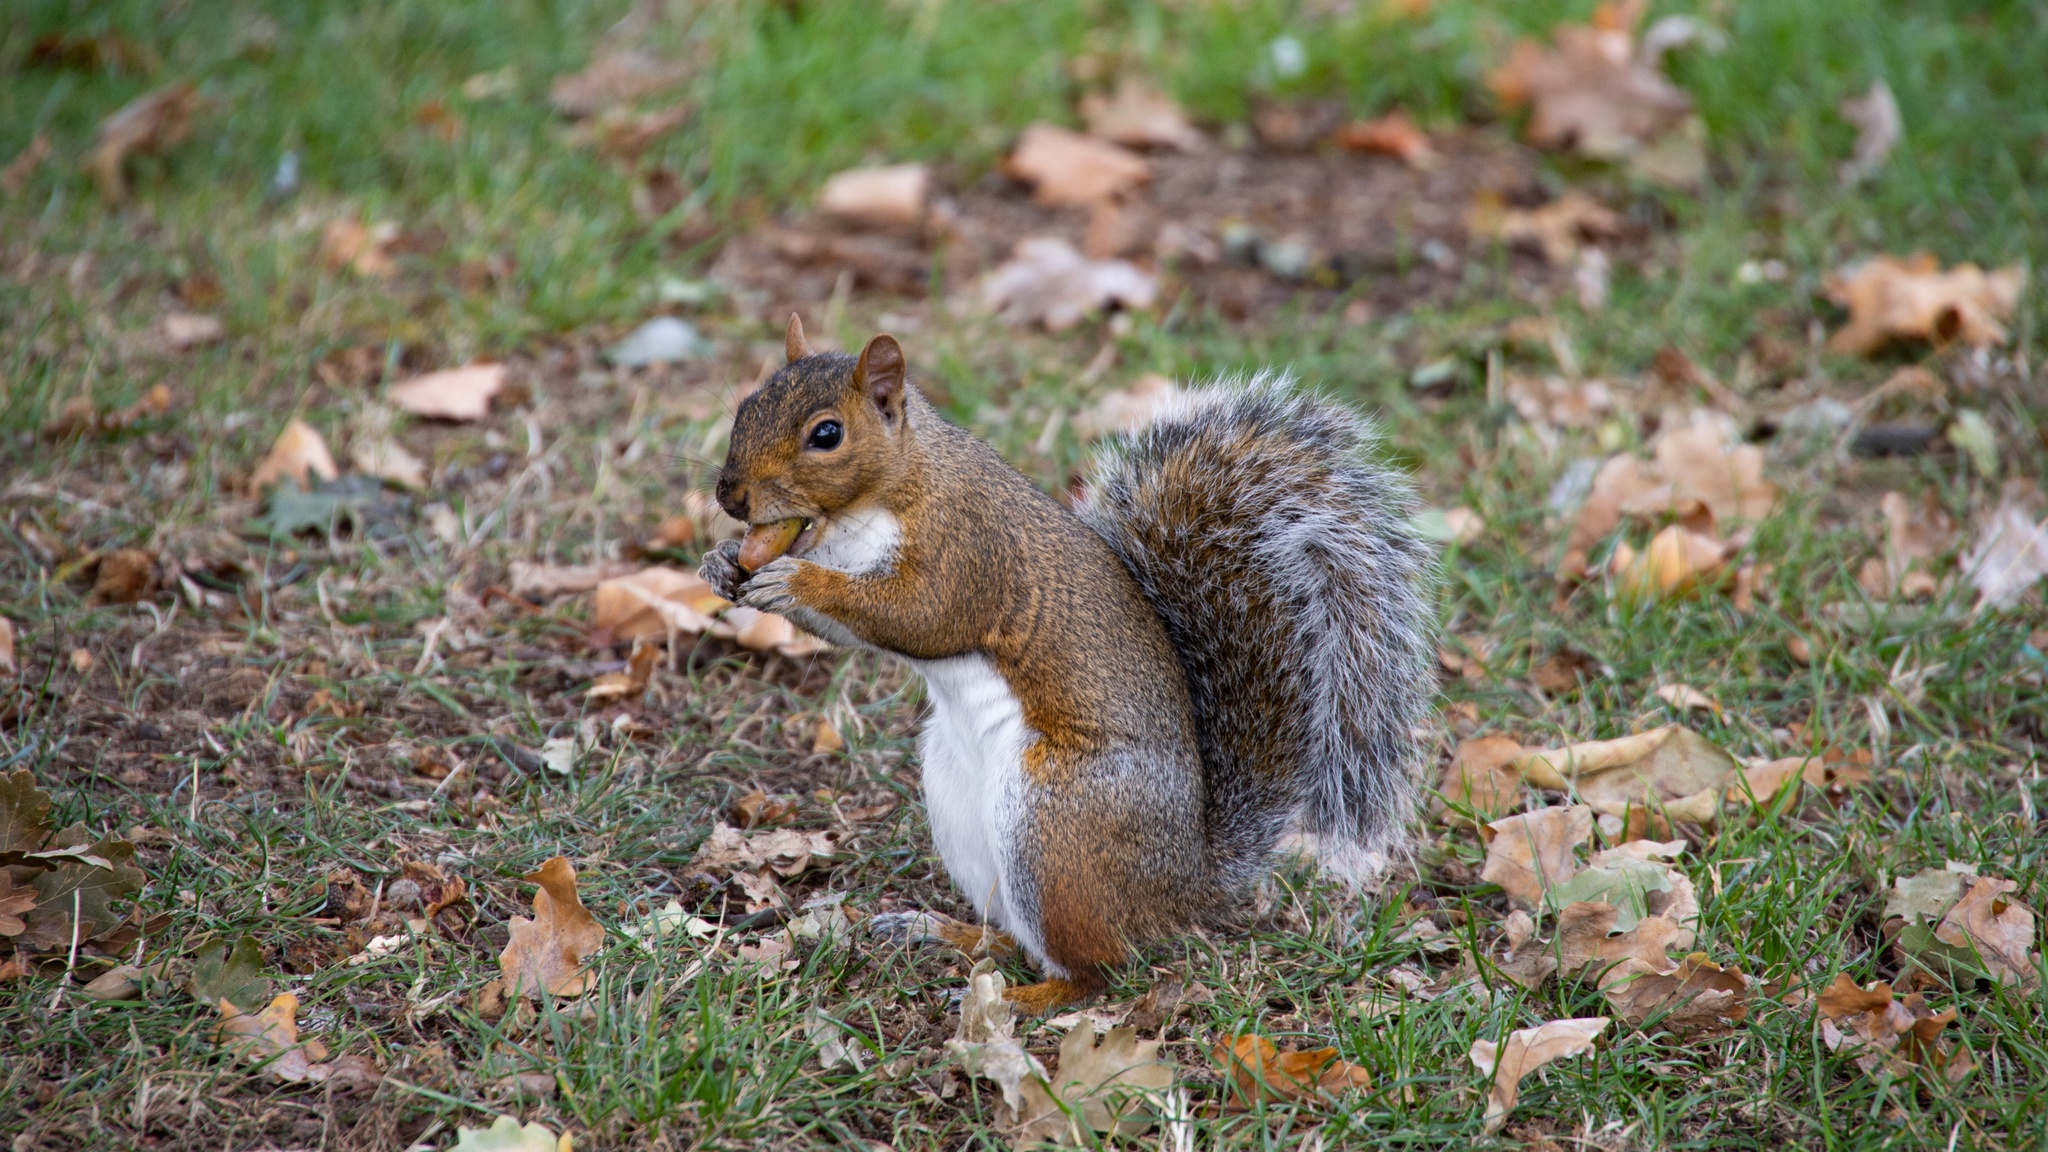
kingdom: Animalia
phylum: Chordata
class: Mammalia
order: Rodentia
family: Sciuridae
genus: Sciurus
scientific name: Sciurus carolinensis
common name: Eastern gray squirrel
